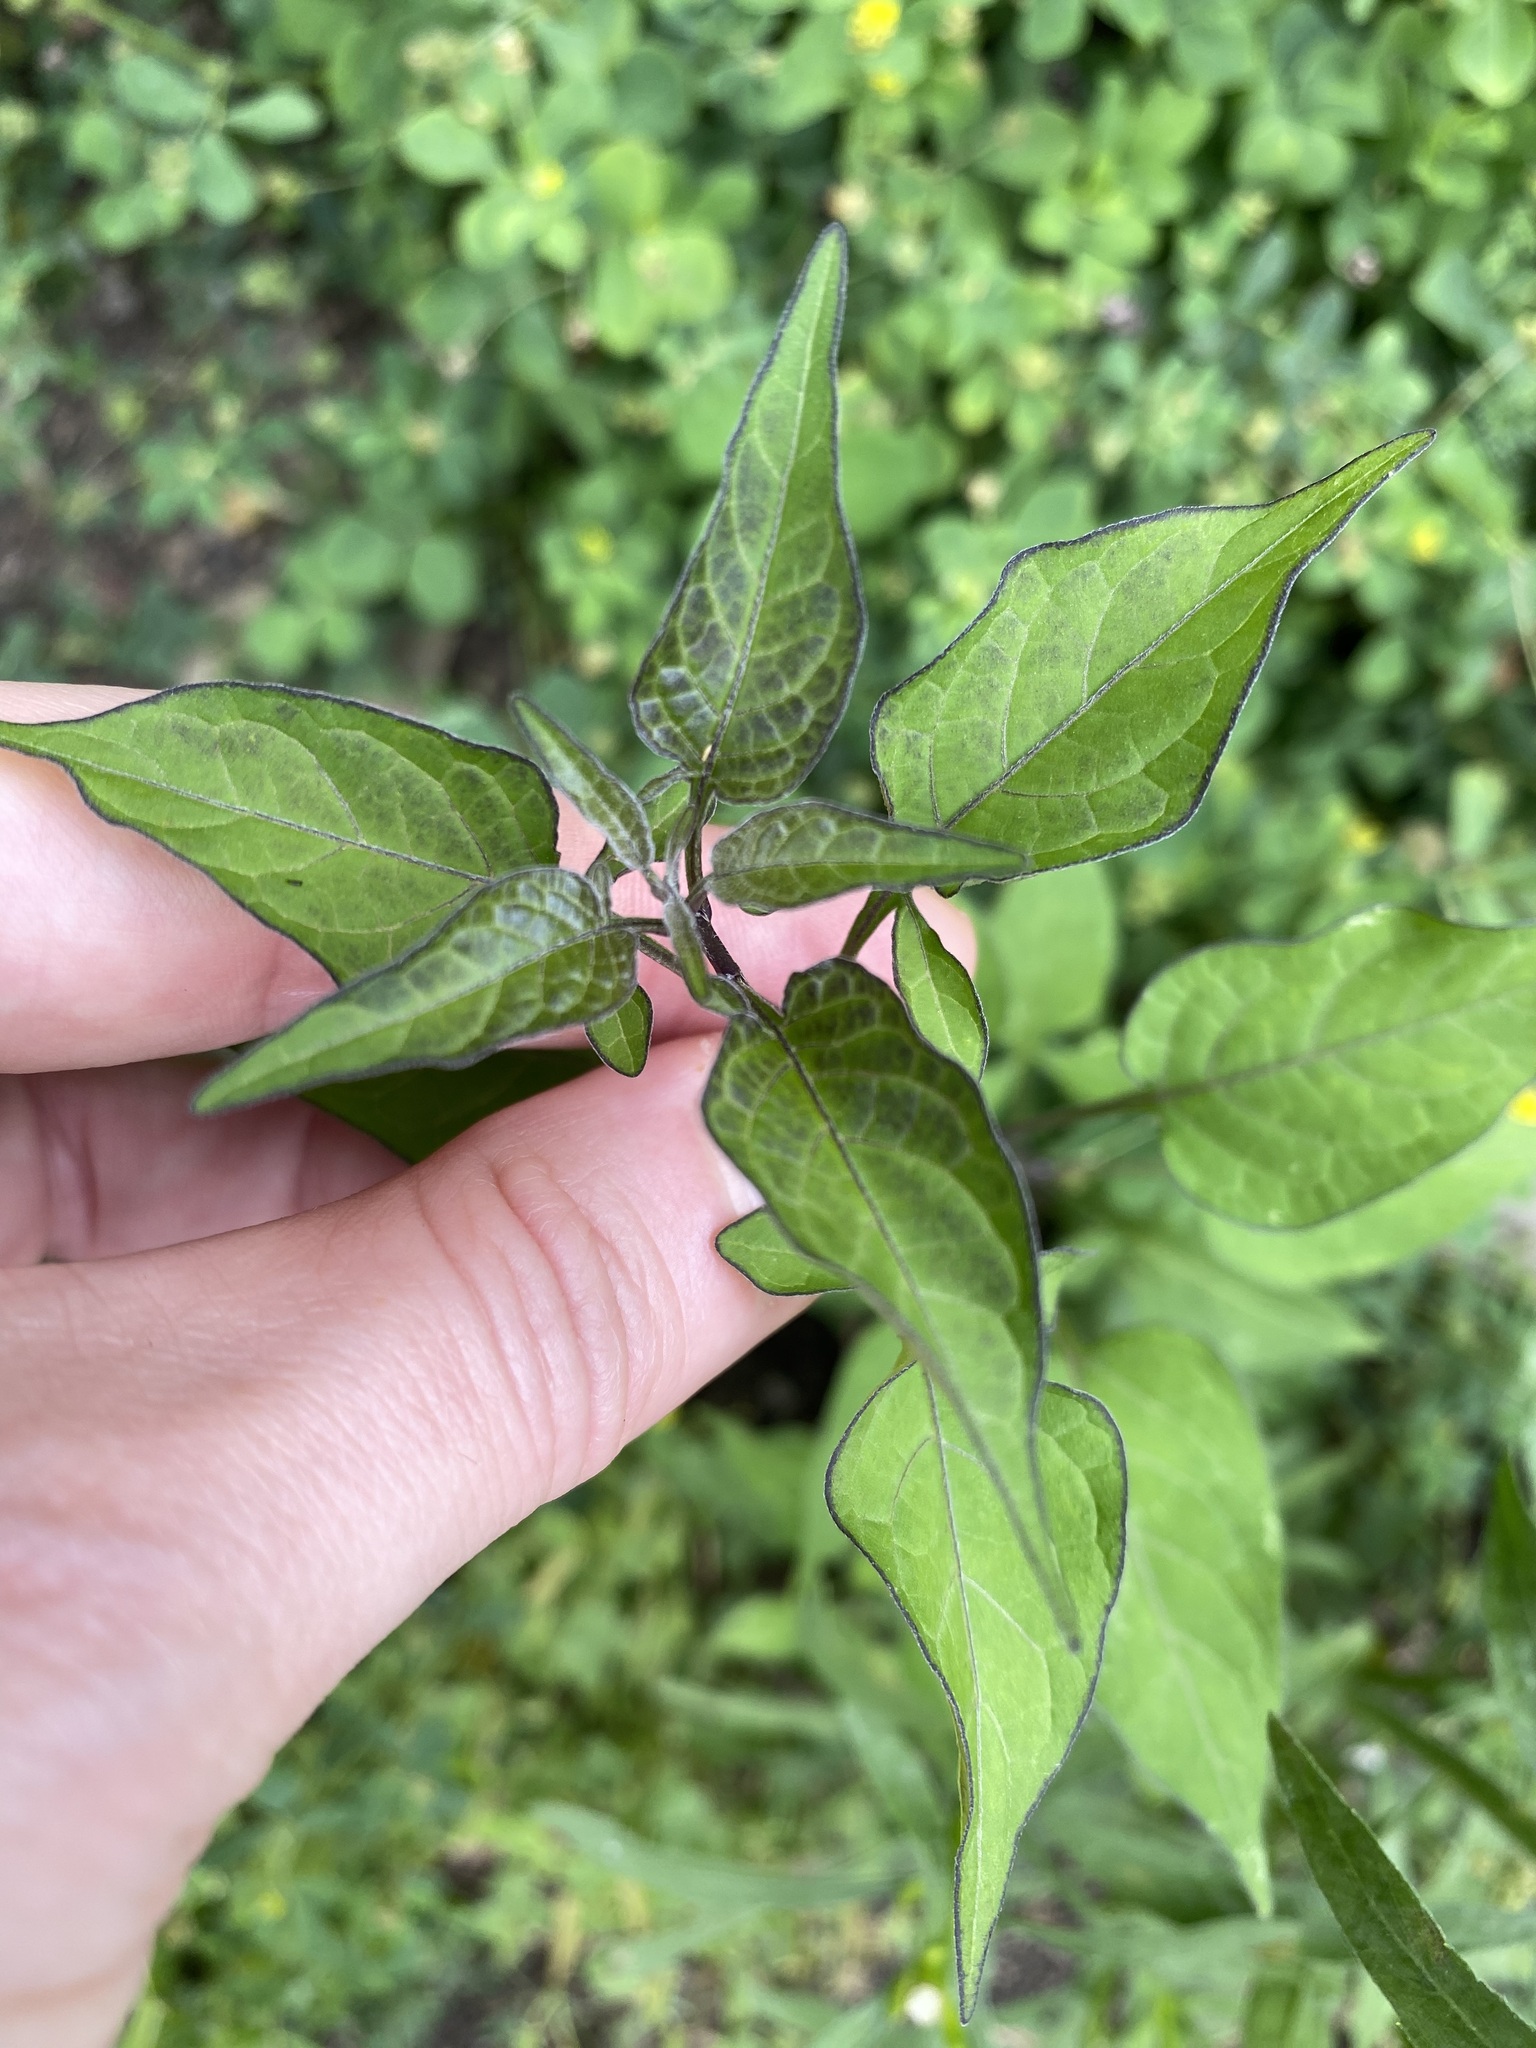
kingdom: Plantae
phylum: Tracheophyta
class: Magnoliopsida
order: Solanales
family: Solanaceae
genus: Solanum
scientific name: Solanum dulcamara
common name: Climbing nightshade
